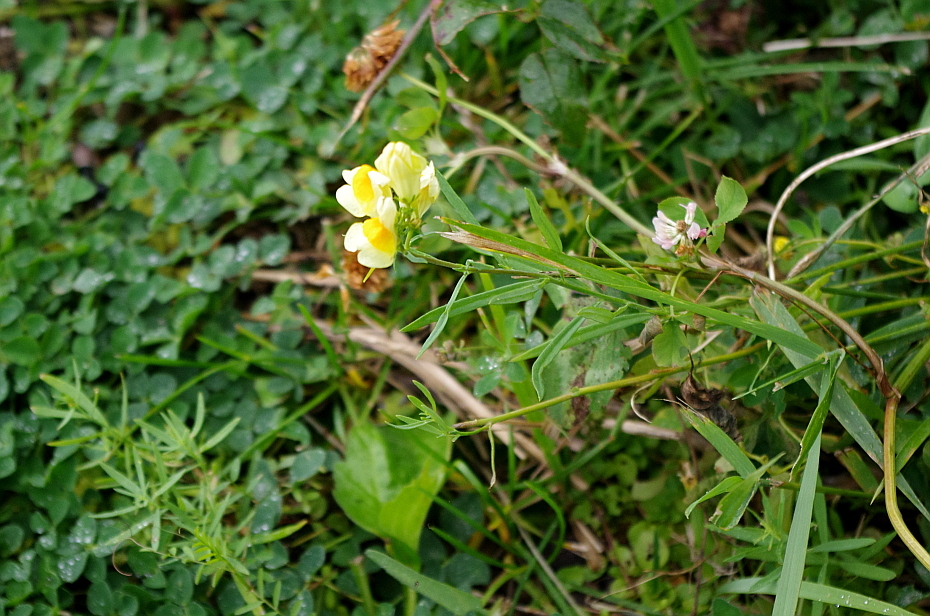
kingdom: Plantae
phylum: Tracheophyta
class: Magnoliopsida
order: Lamiales
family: Plantaginaceae
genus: Linaria
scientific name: Linaria vulgaris
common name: Butter and eggs
